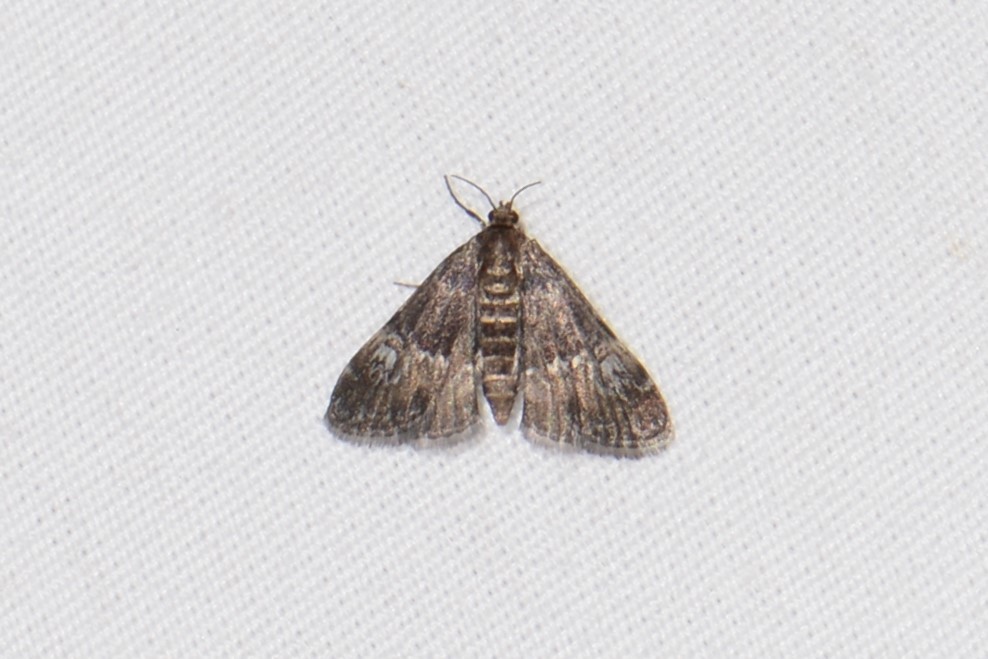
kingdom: Animalia
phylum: Arthropoda
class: Insecta
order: Lepidoptera
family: Crambidae
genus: Elophila
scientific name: Elophila obliteralis
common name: Waterlily leafcutter moth
